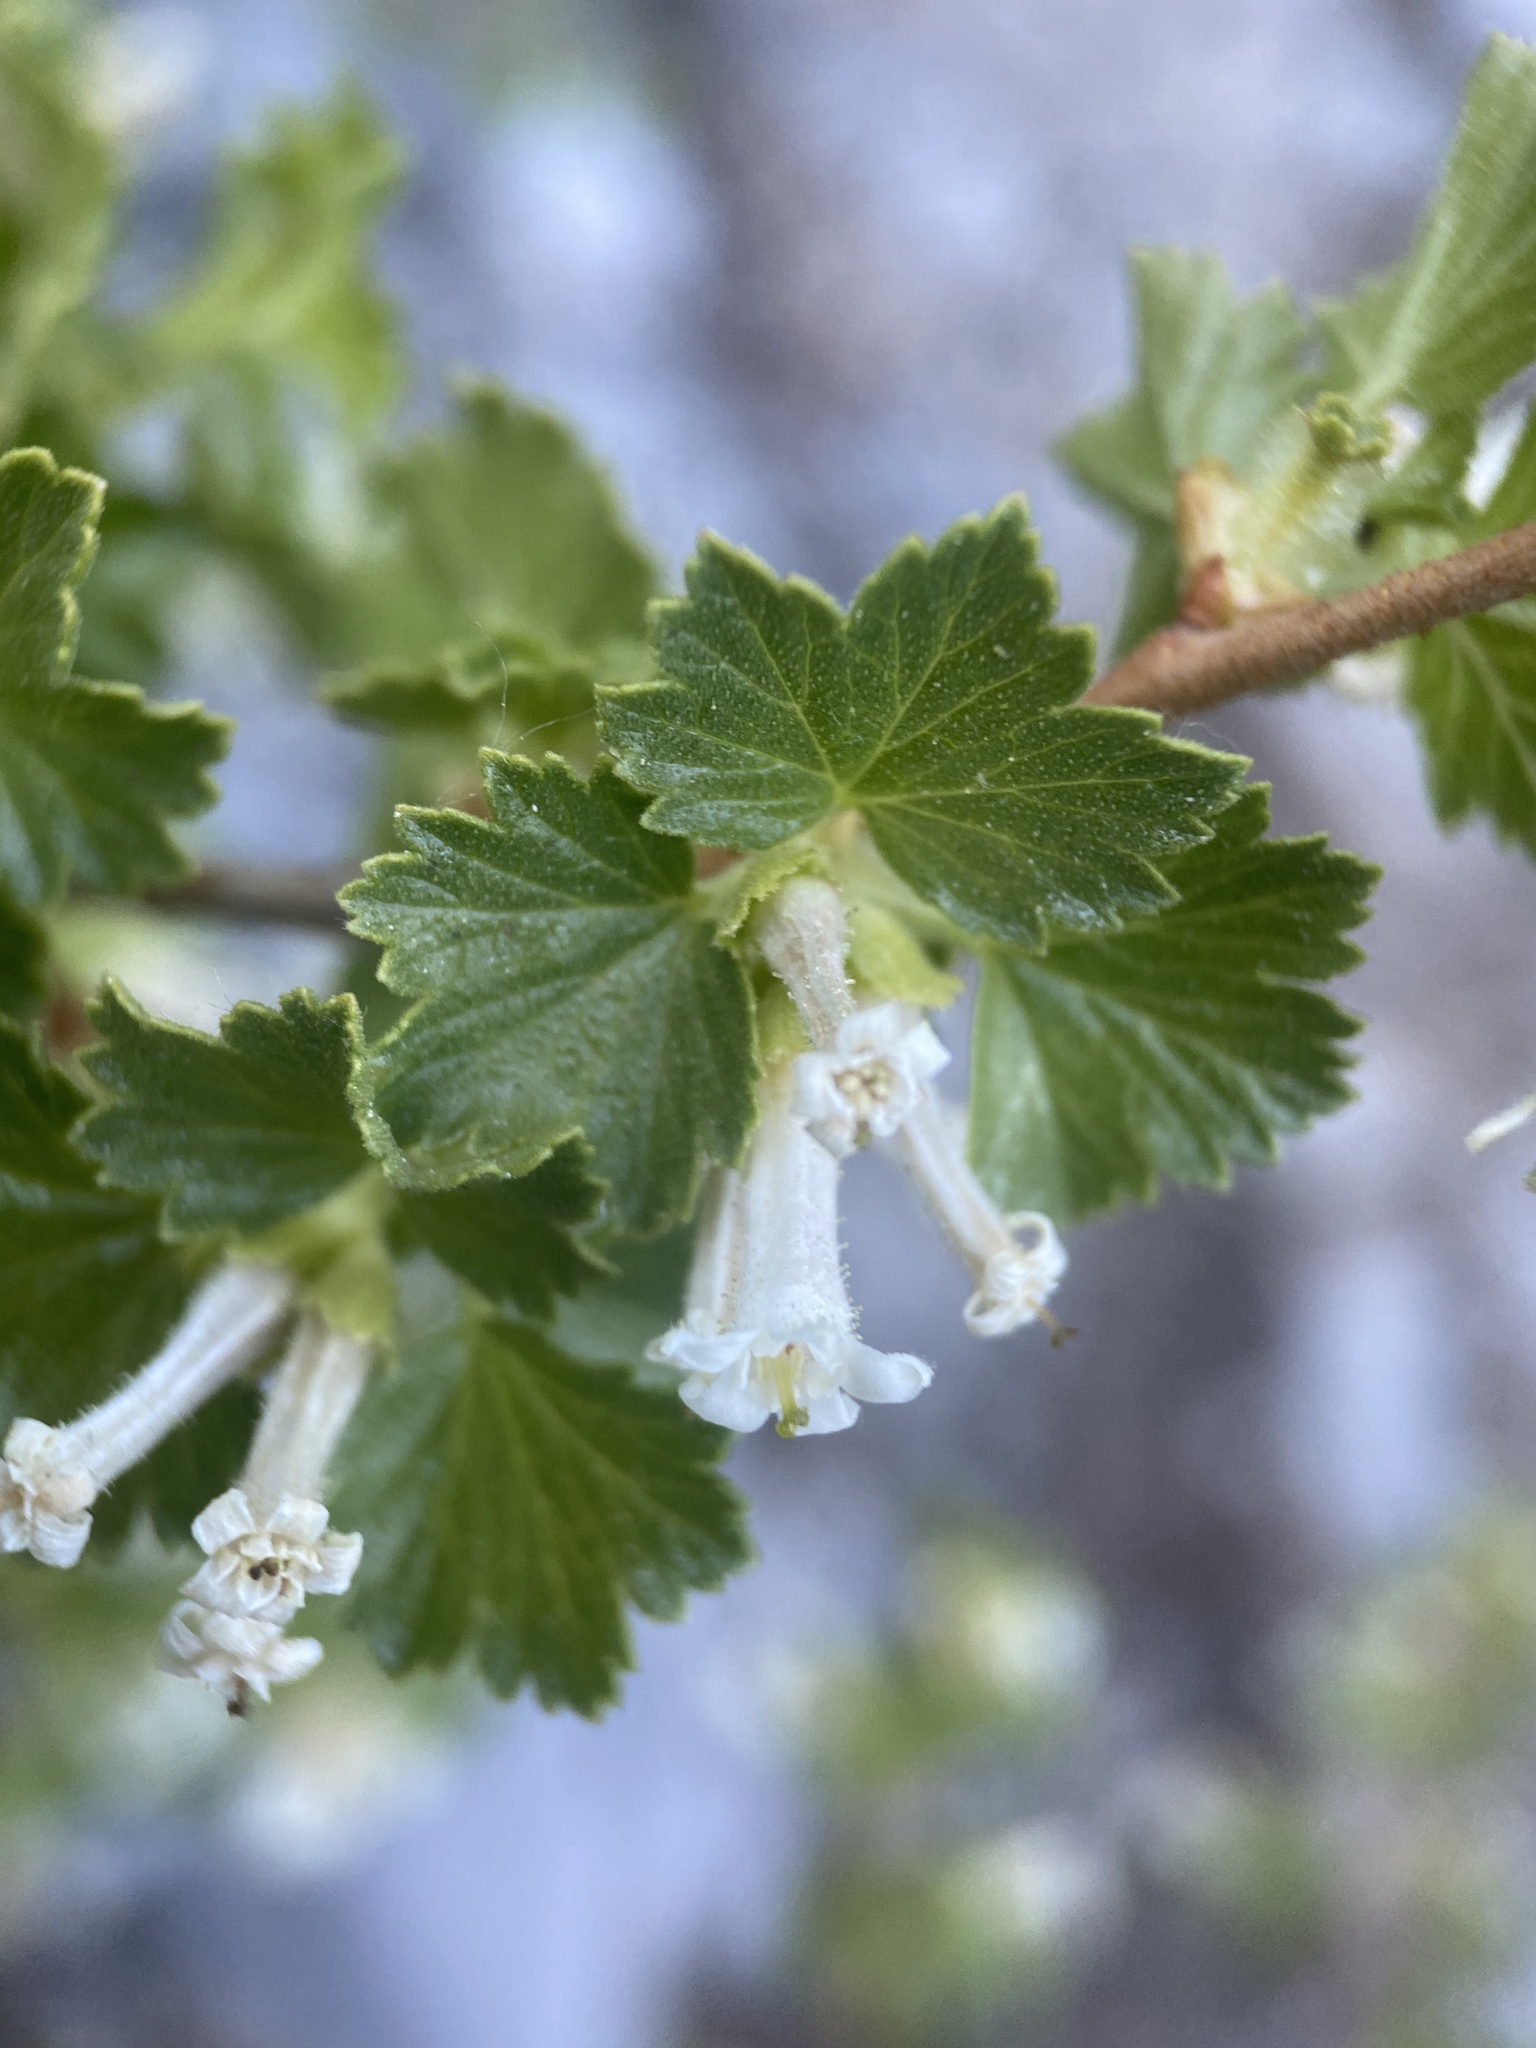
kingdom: Plantae
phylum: Tracheophyta
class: Magnoliopsida
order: Saxifragales
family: Grossulariaceae
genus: Ribes
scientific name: Ribes cereum
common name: Wax currant
